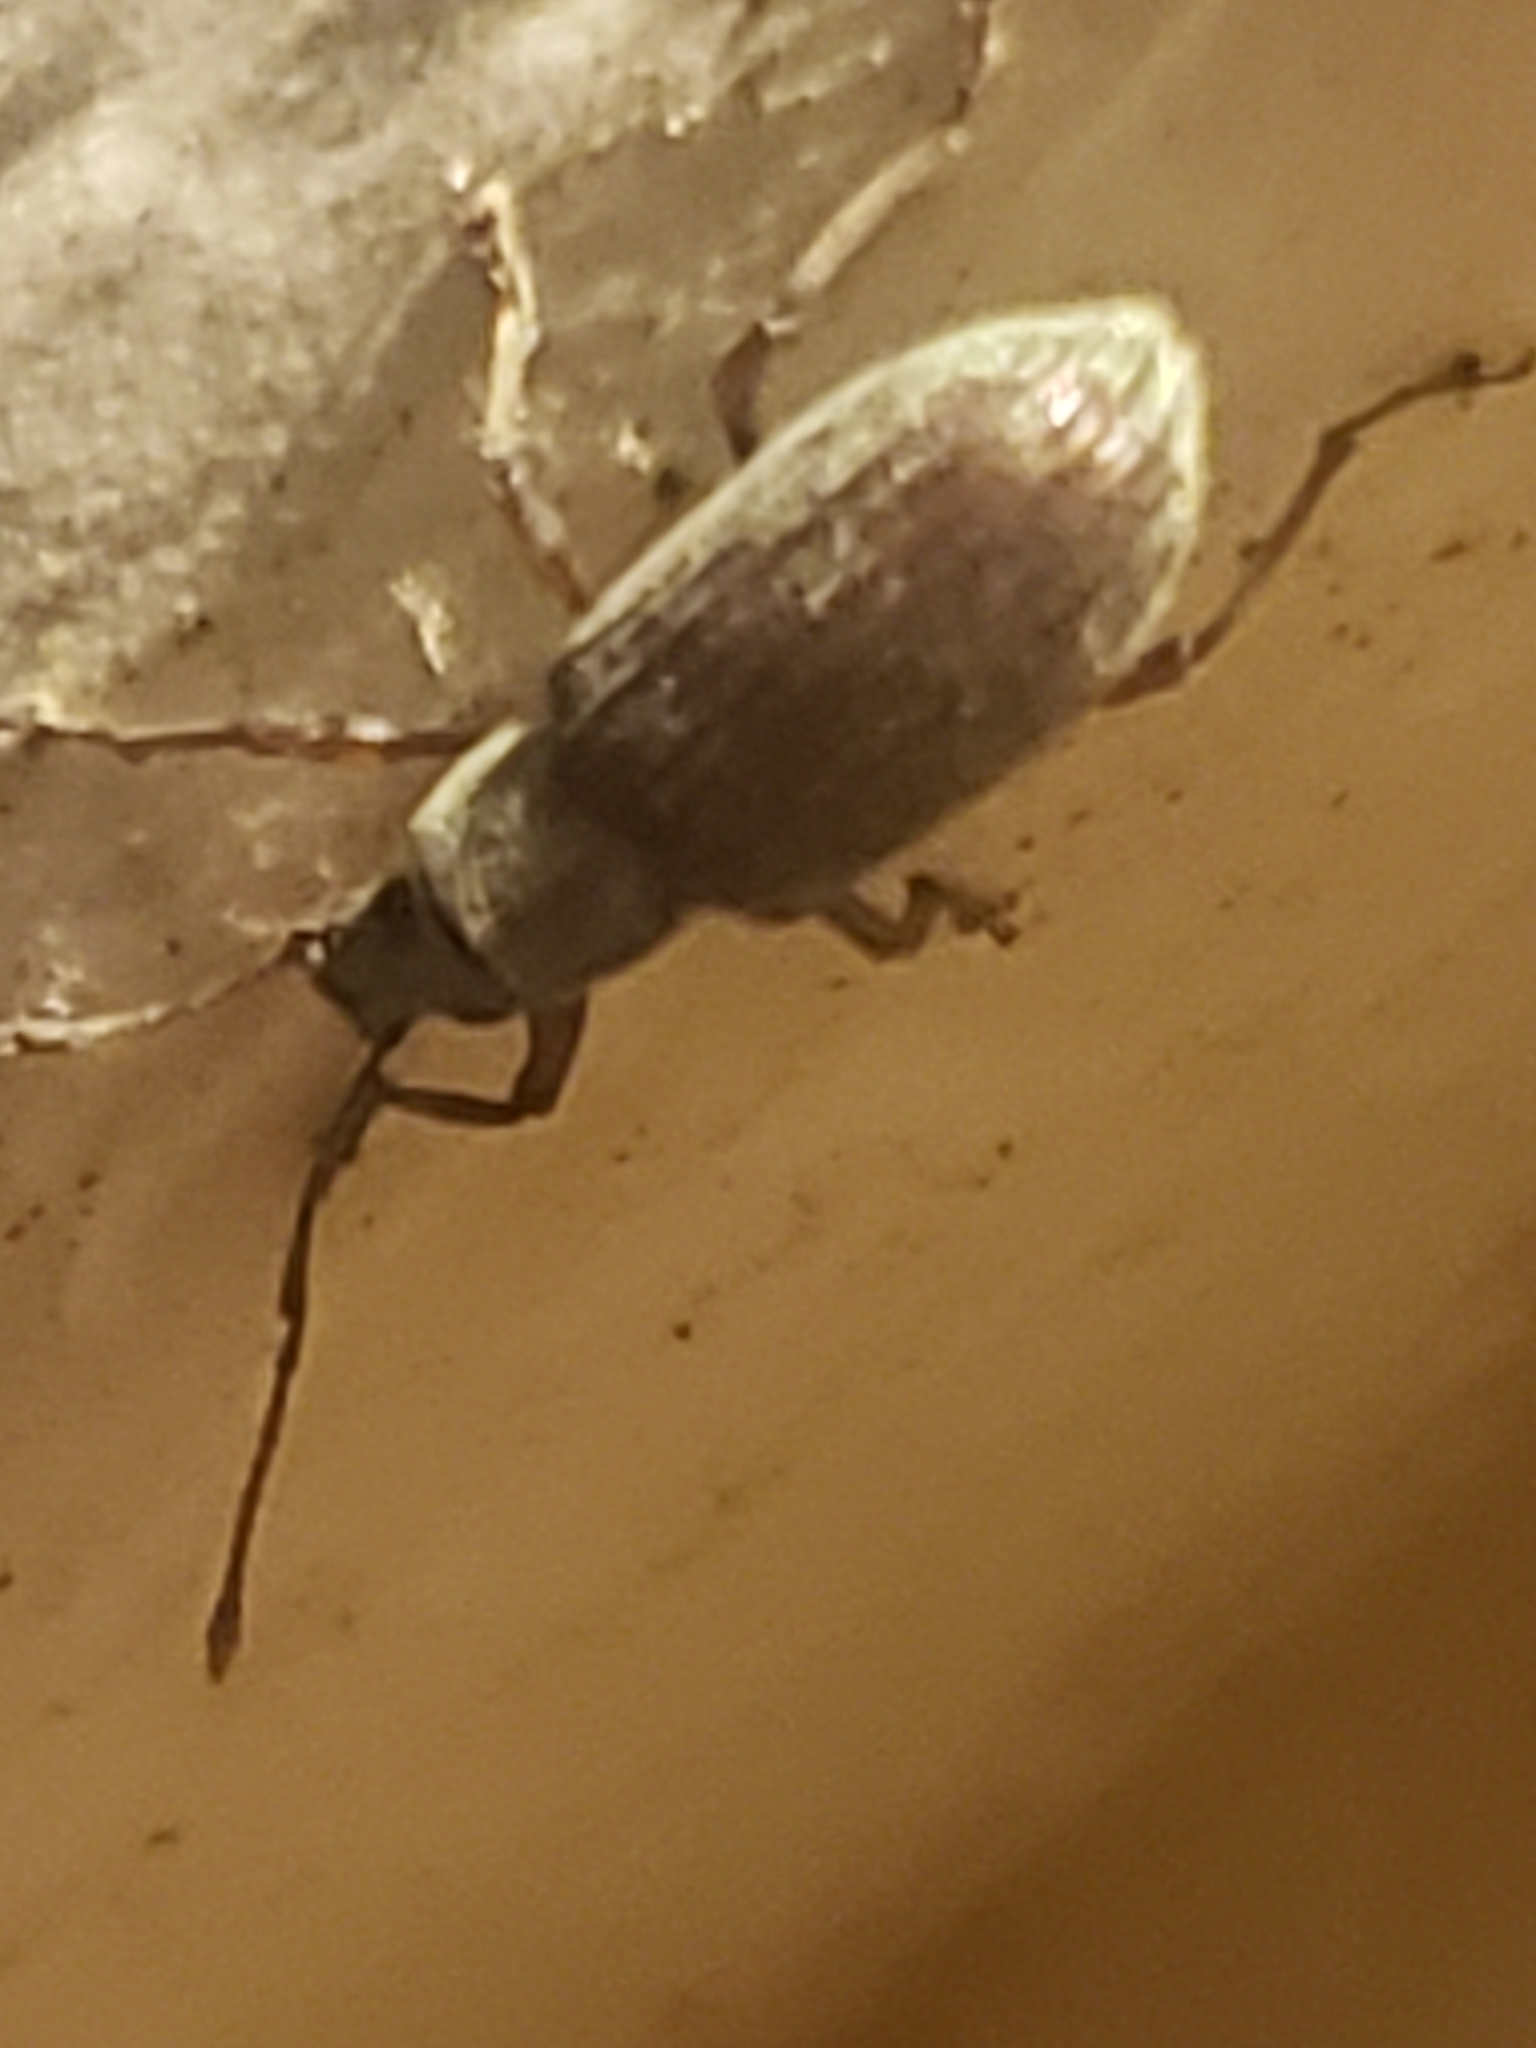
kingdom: Animalia
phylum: Arthropoda
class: Insecta
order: Coleoptera
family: Curculionidae
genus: Cyrtepistomus
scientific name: Cyrtepistomus castaneus
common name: Weevil
